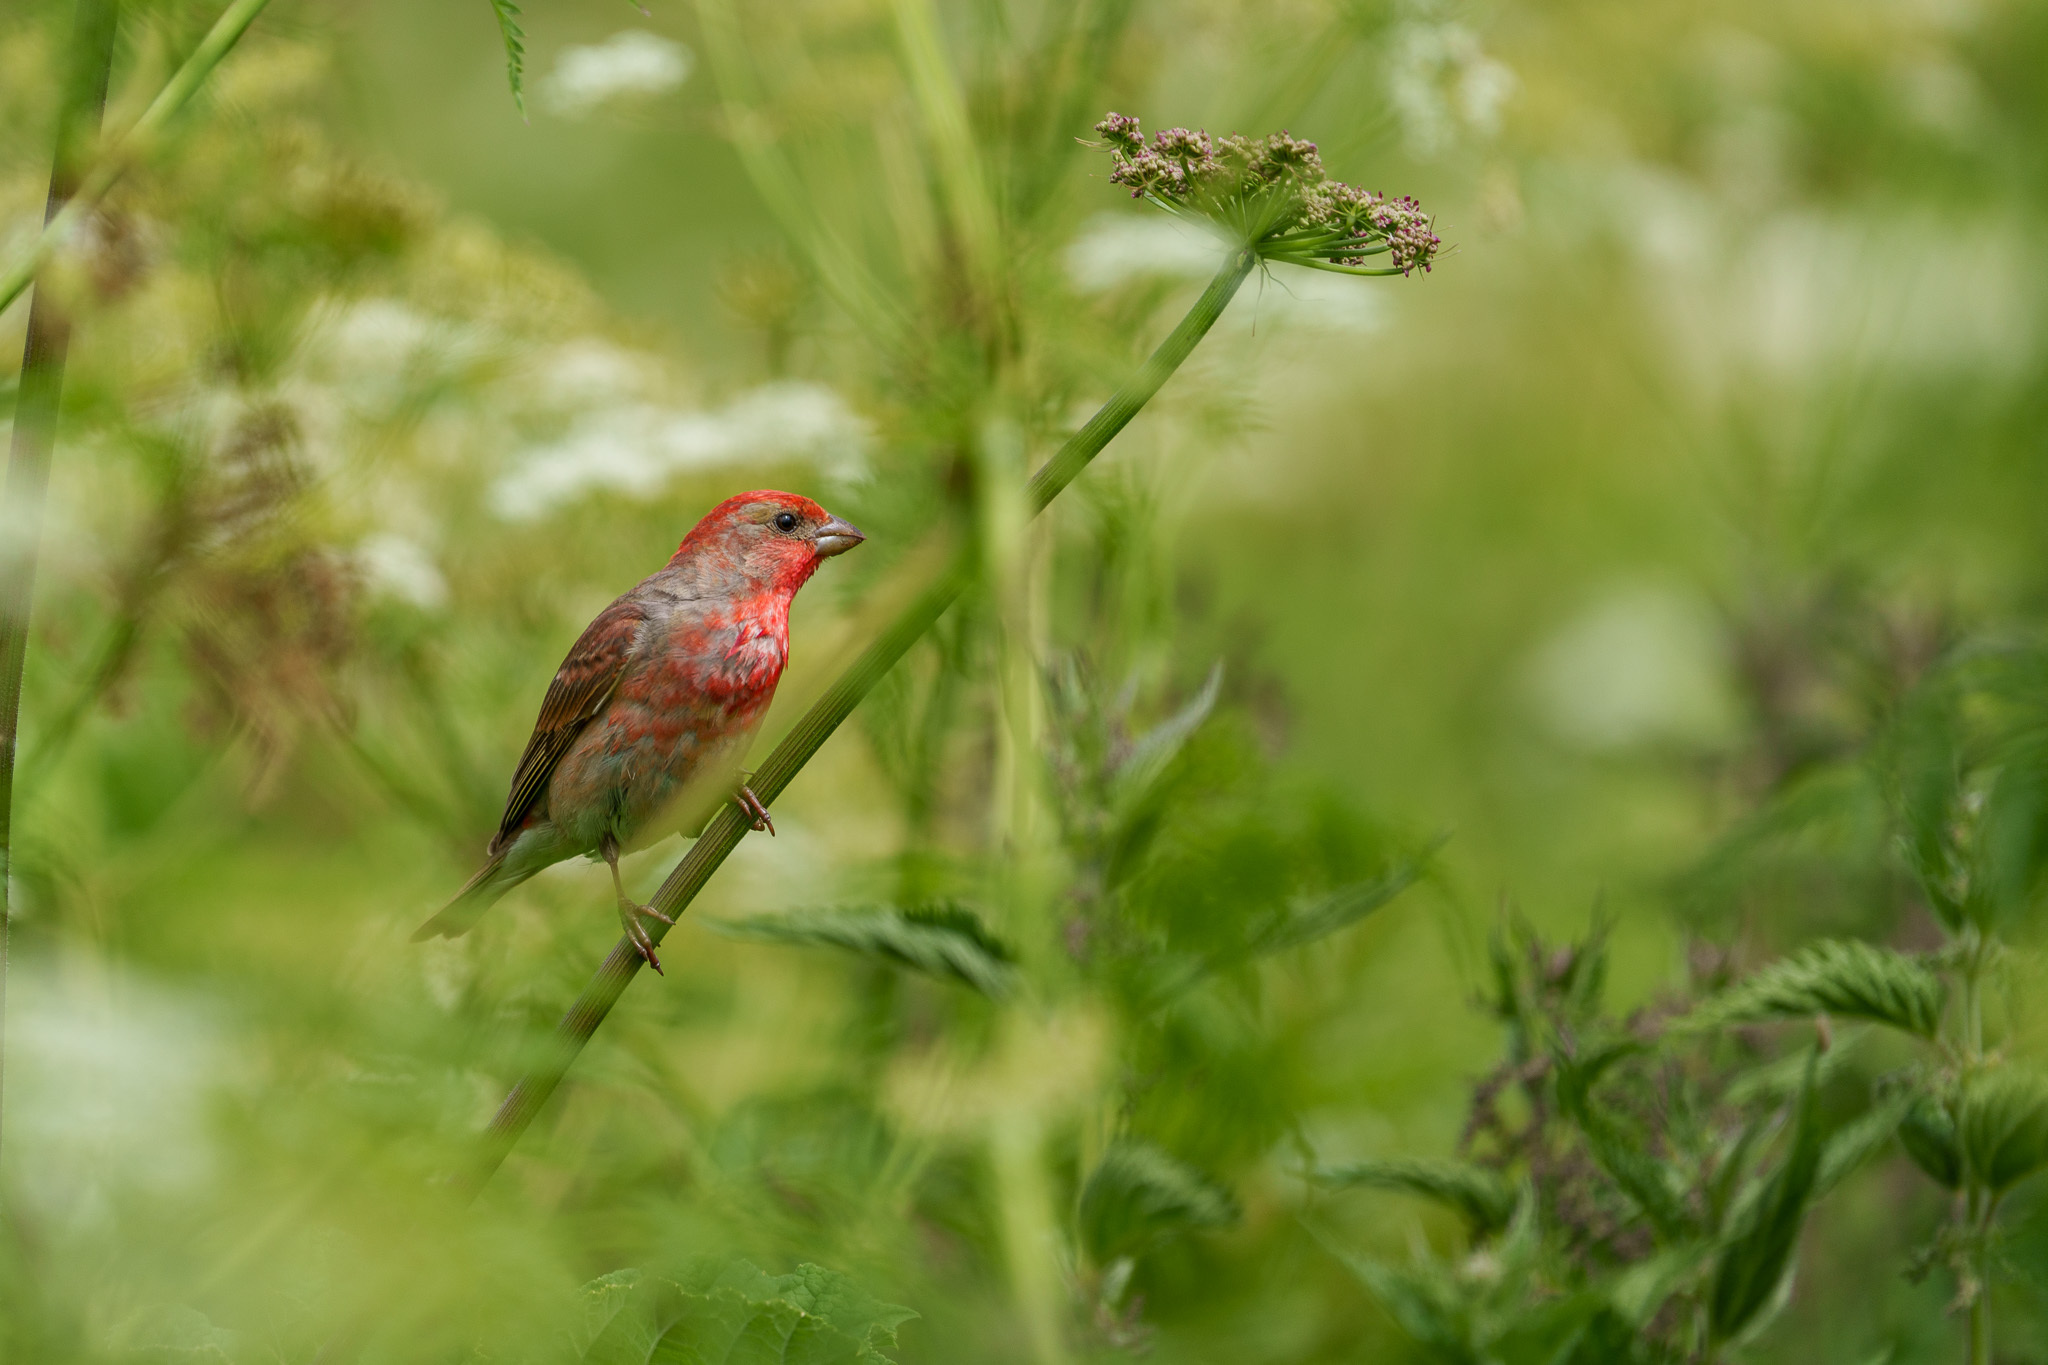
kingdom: Animalia
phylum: Chordata
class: Aves
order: Passeriformes
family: Fringillidae
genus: Carpodacus
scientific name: Carpodacus erythrinus
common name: Common rosefinch
